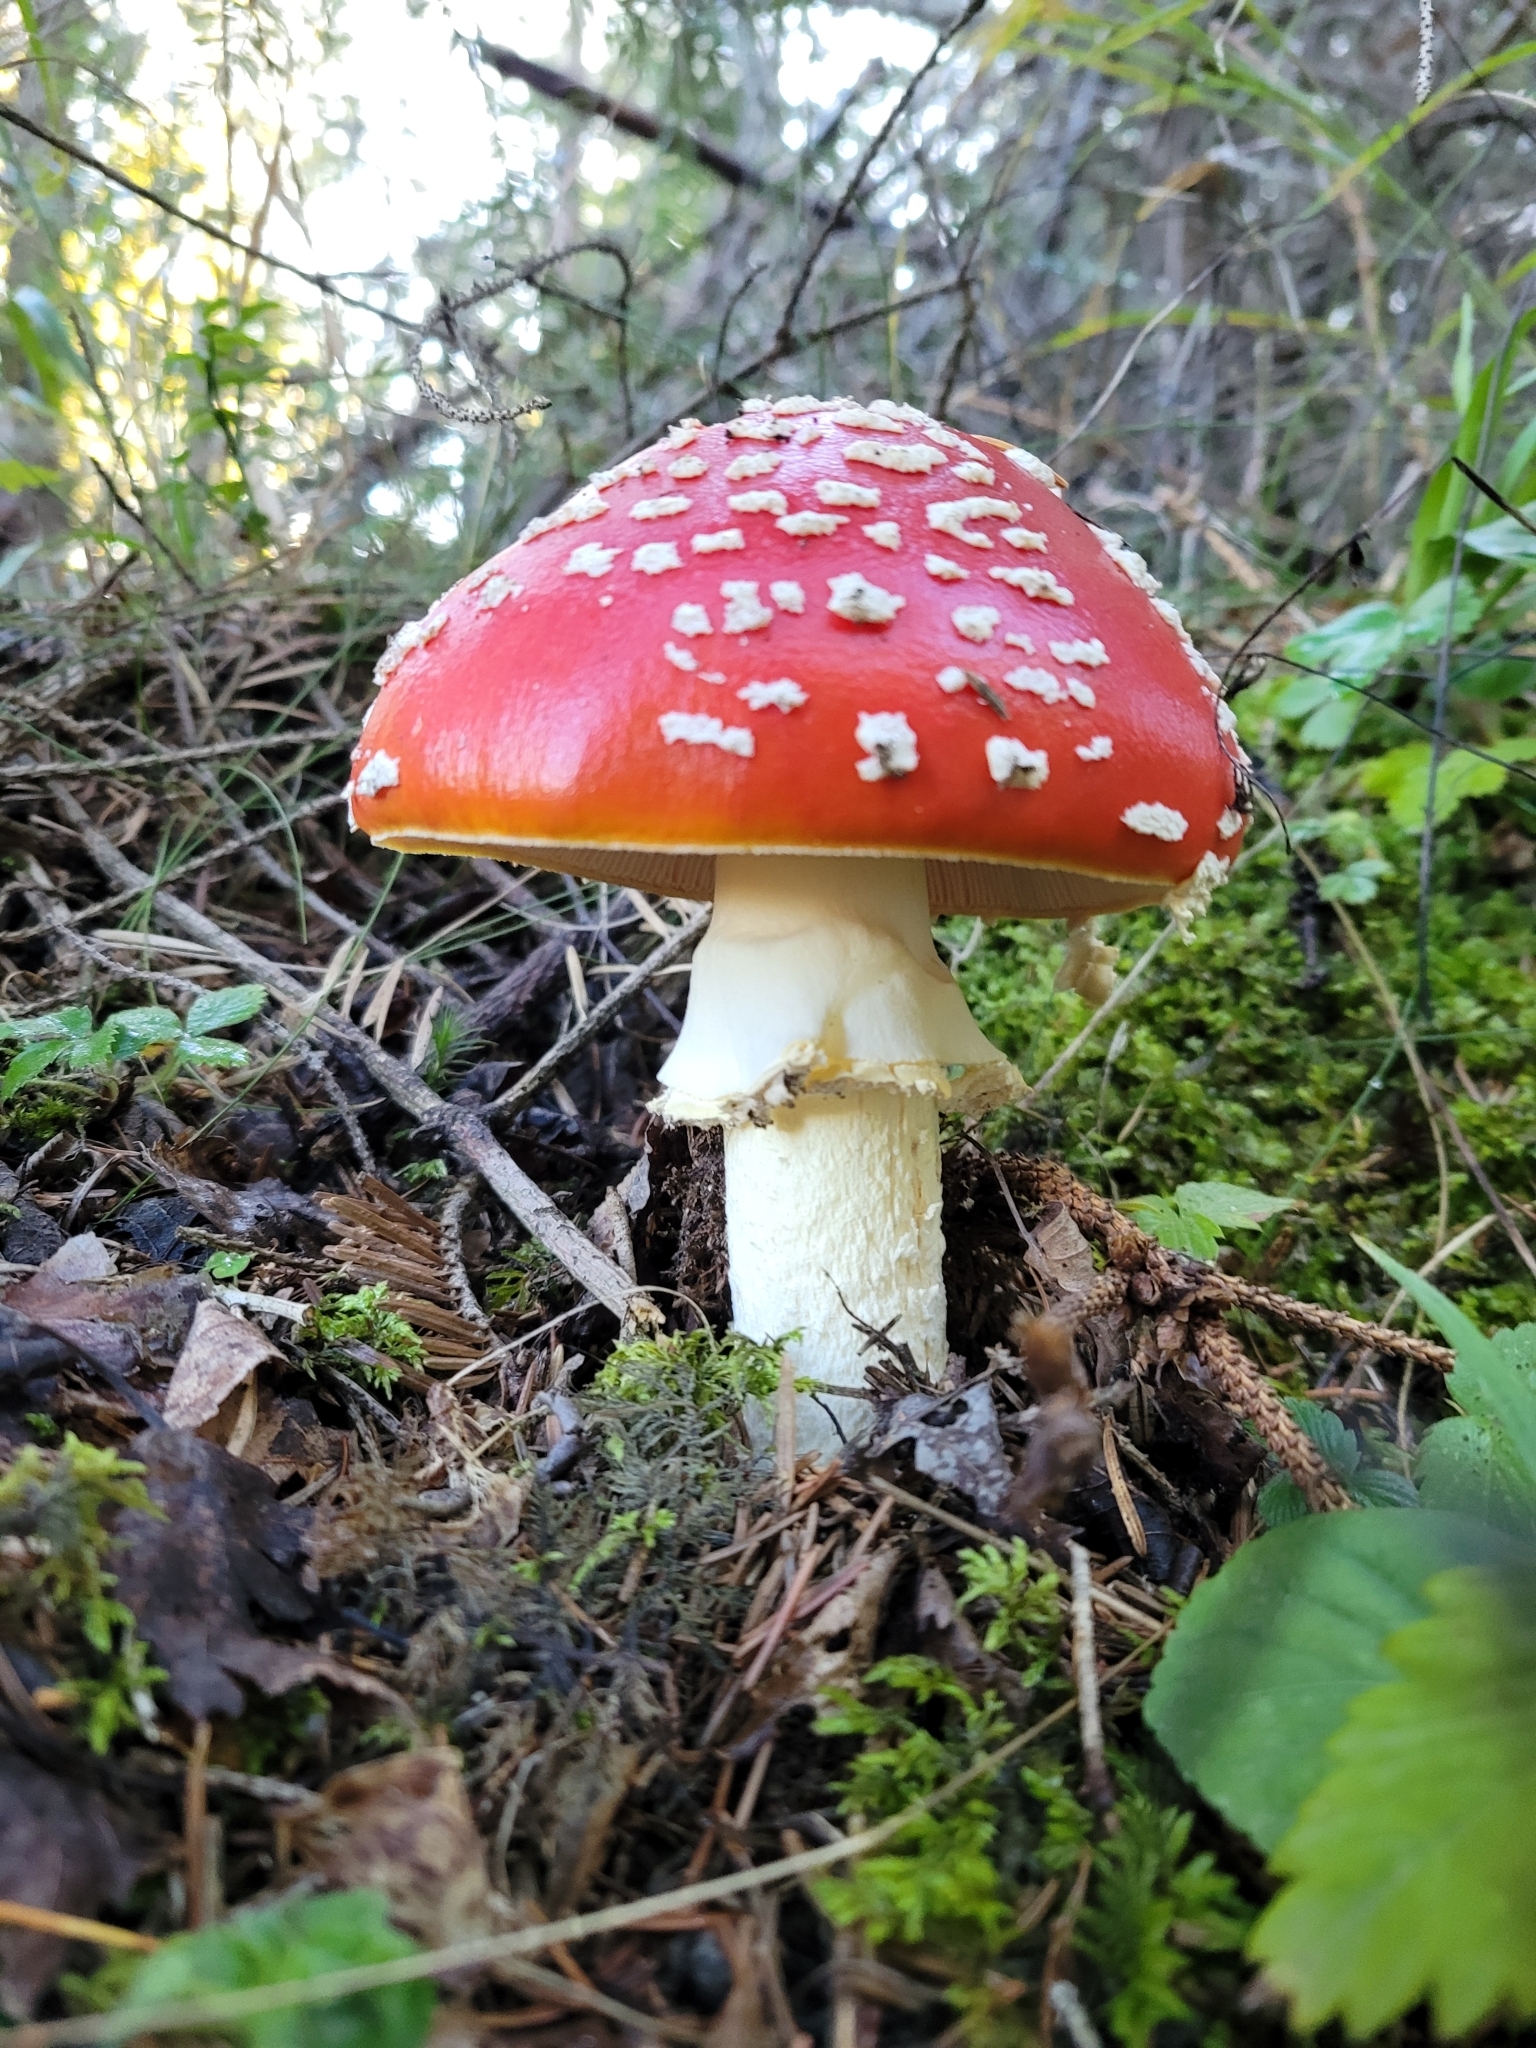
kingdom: Fungi
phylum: Basidiomycota
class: Agaricomycetes
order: Agaricales
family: Amanitaceae
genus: Amanita
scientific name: Amanita muscaria
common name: Fly agaric
